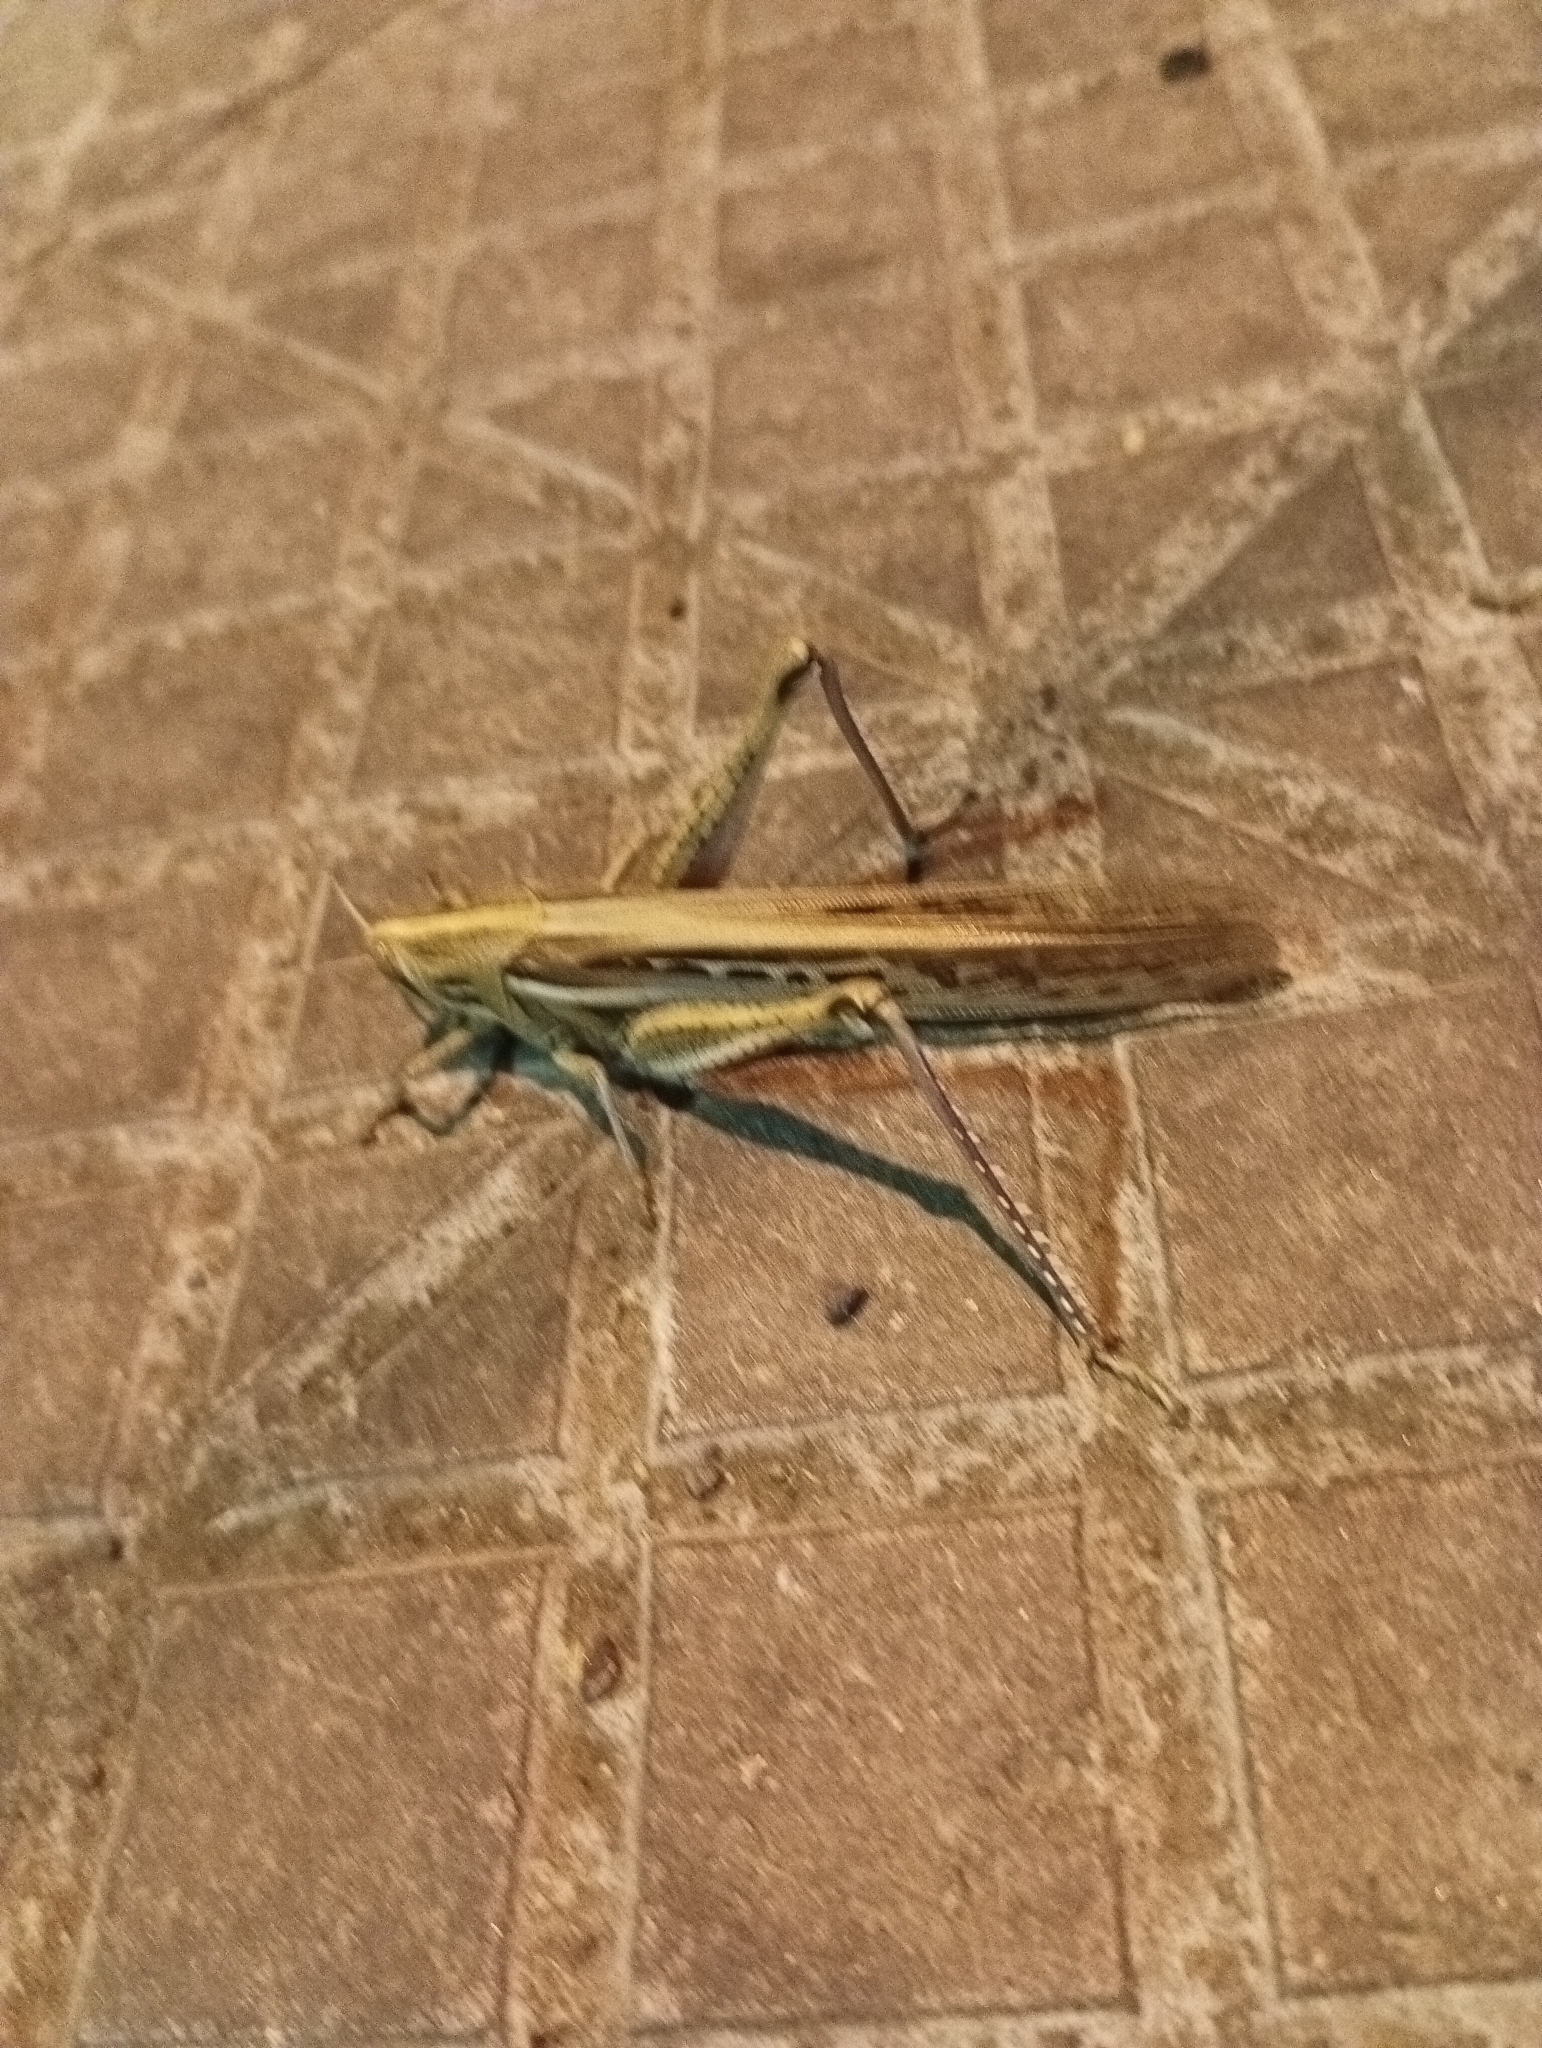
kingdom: Animalia
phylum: Arthropoda
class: Insecta
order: Orthoptera
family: Acrididae
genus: Schistocerca
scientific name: Schistocerca cancellata
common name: South american locust
